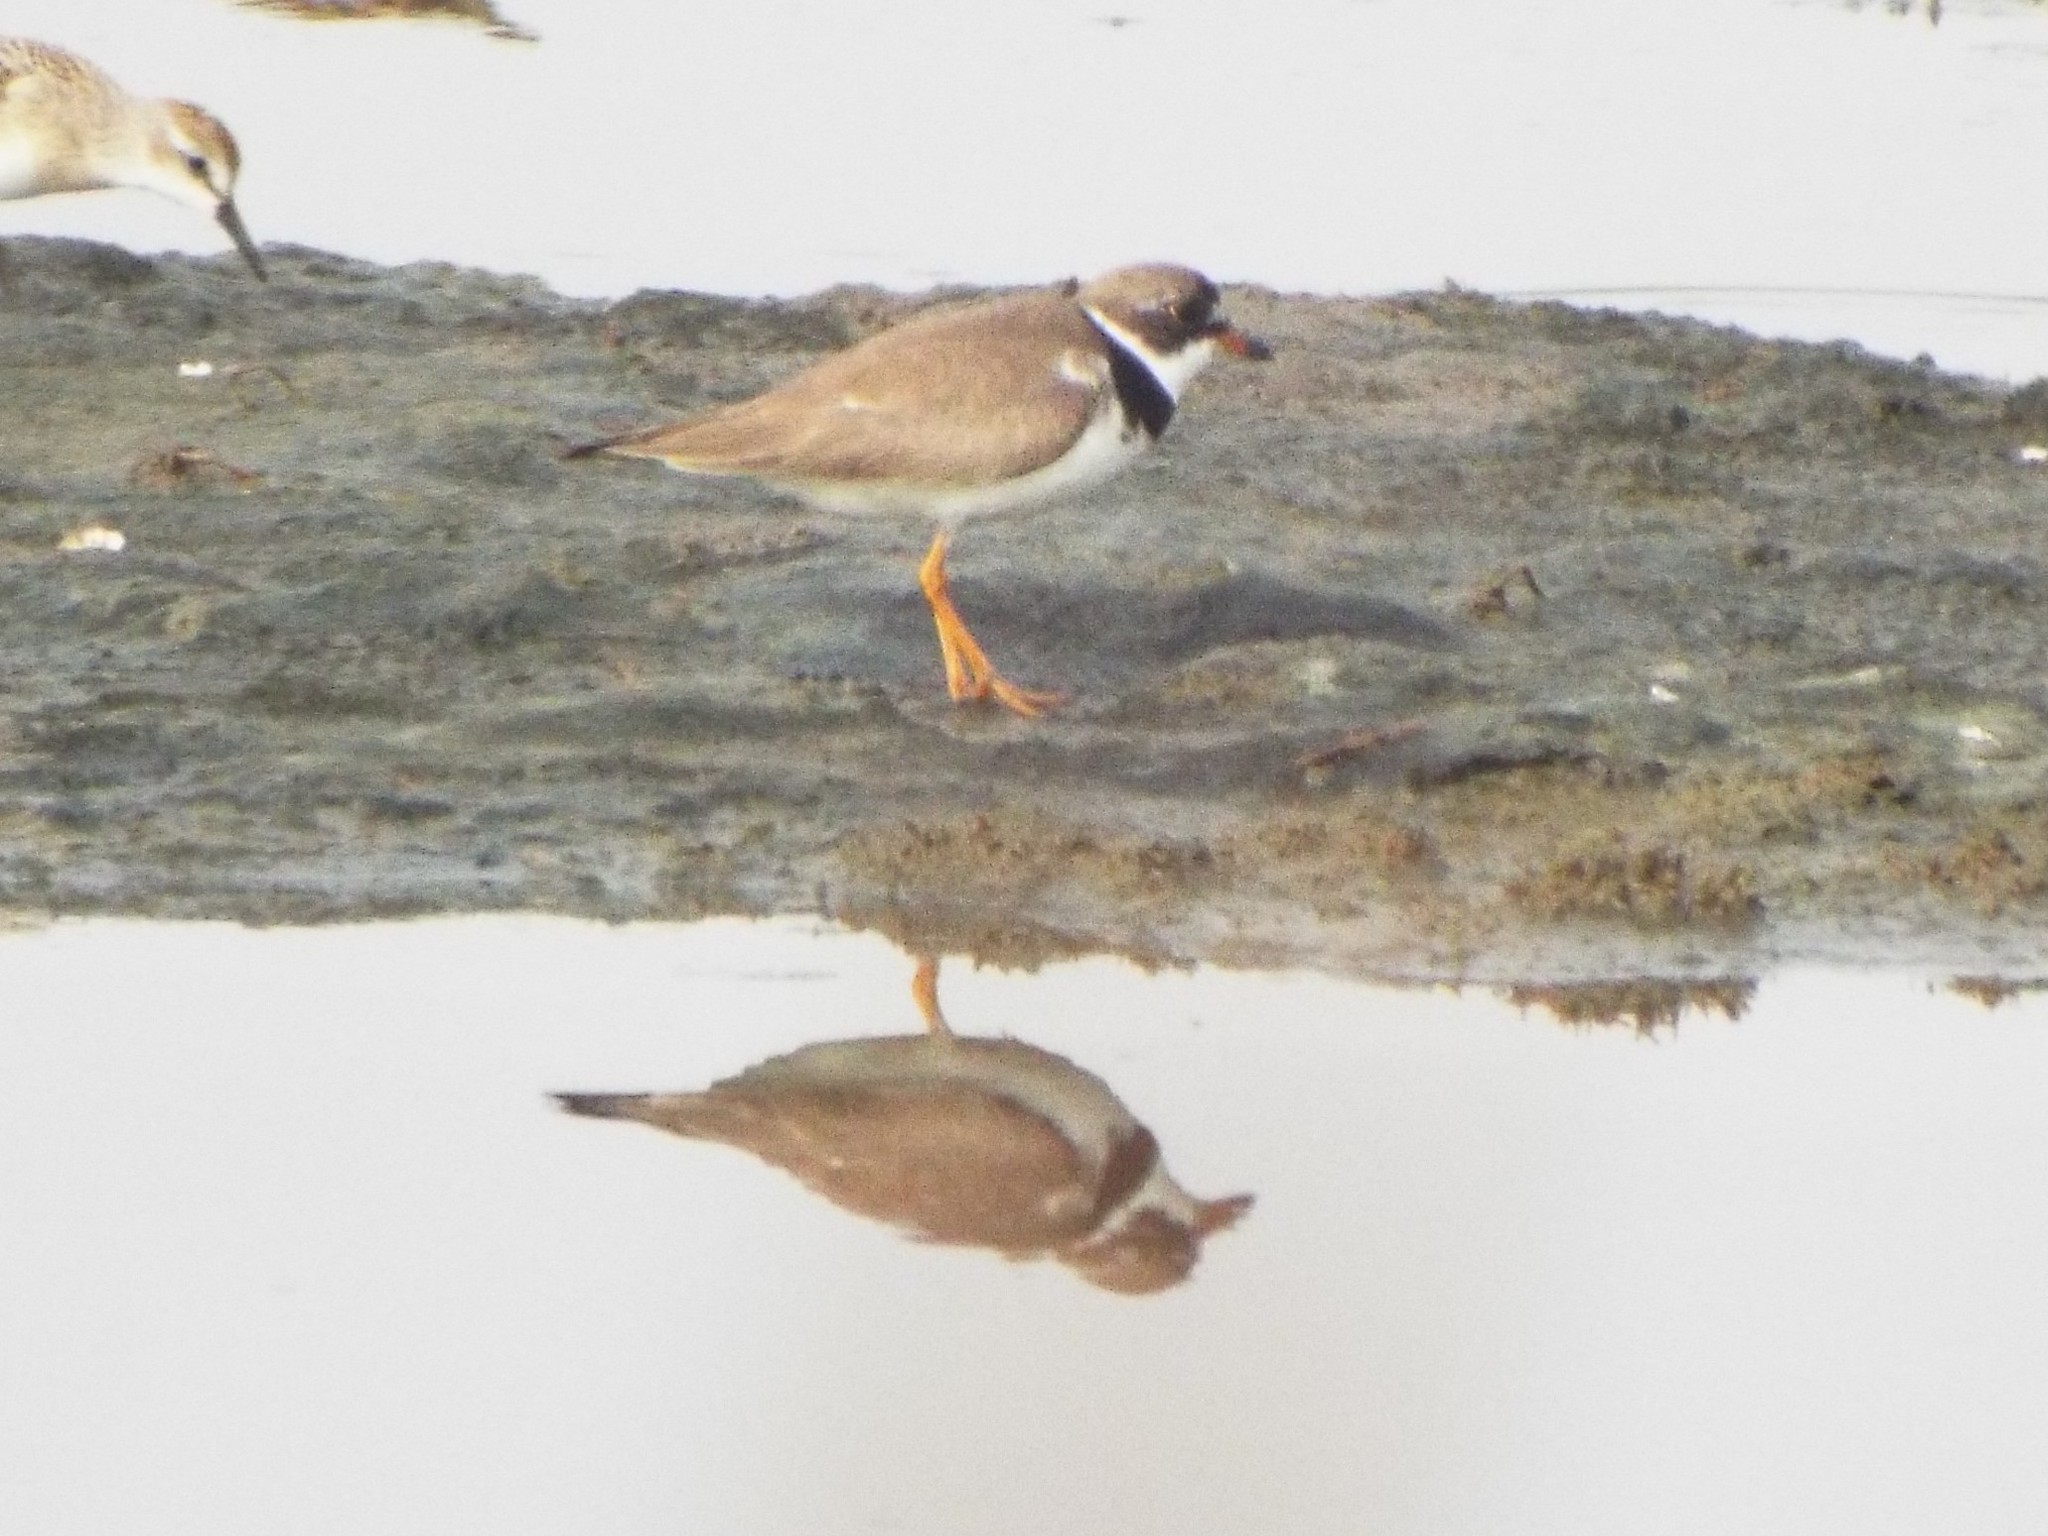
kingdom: Animalia
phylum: Chordata
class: Aves
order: Charadriiformes
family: Charadriidae
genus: Charadrius
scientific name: Charadrius semipalmatus
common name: Semipalmated plover
